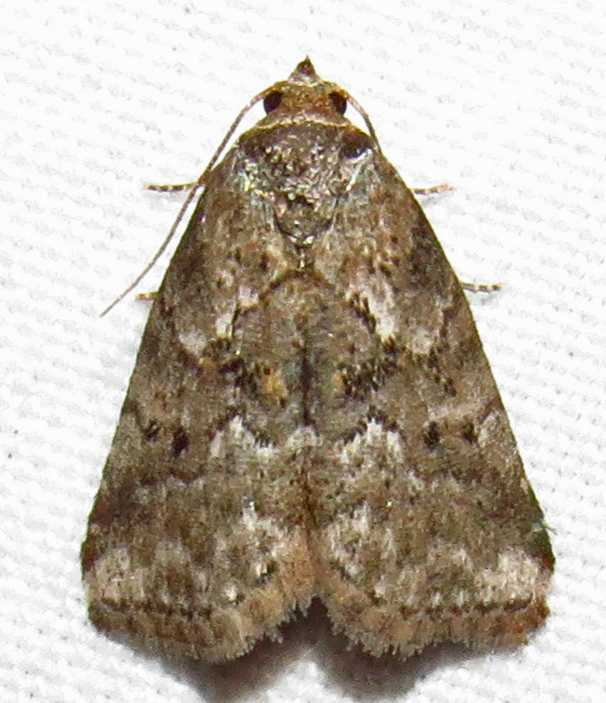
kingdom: Animalia
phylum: Arthropoda
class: Insecta
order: Lepidoptera
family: Erebidae
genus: Hyperstrotia
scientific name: Hyperstrotia nana
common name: White-lined graylet
